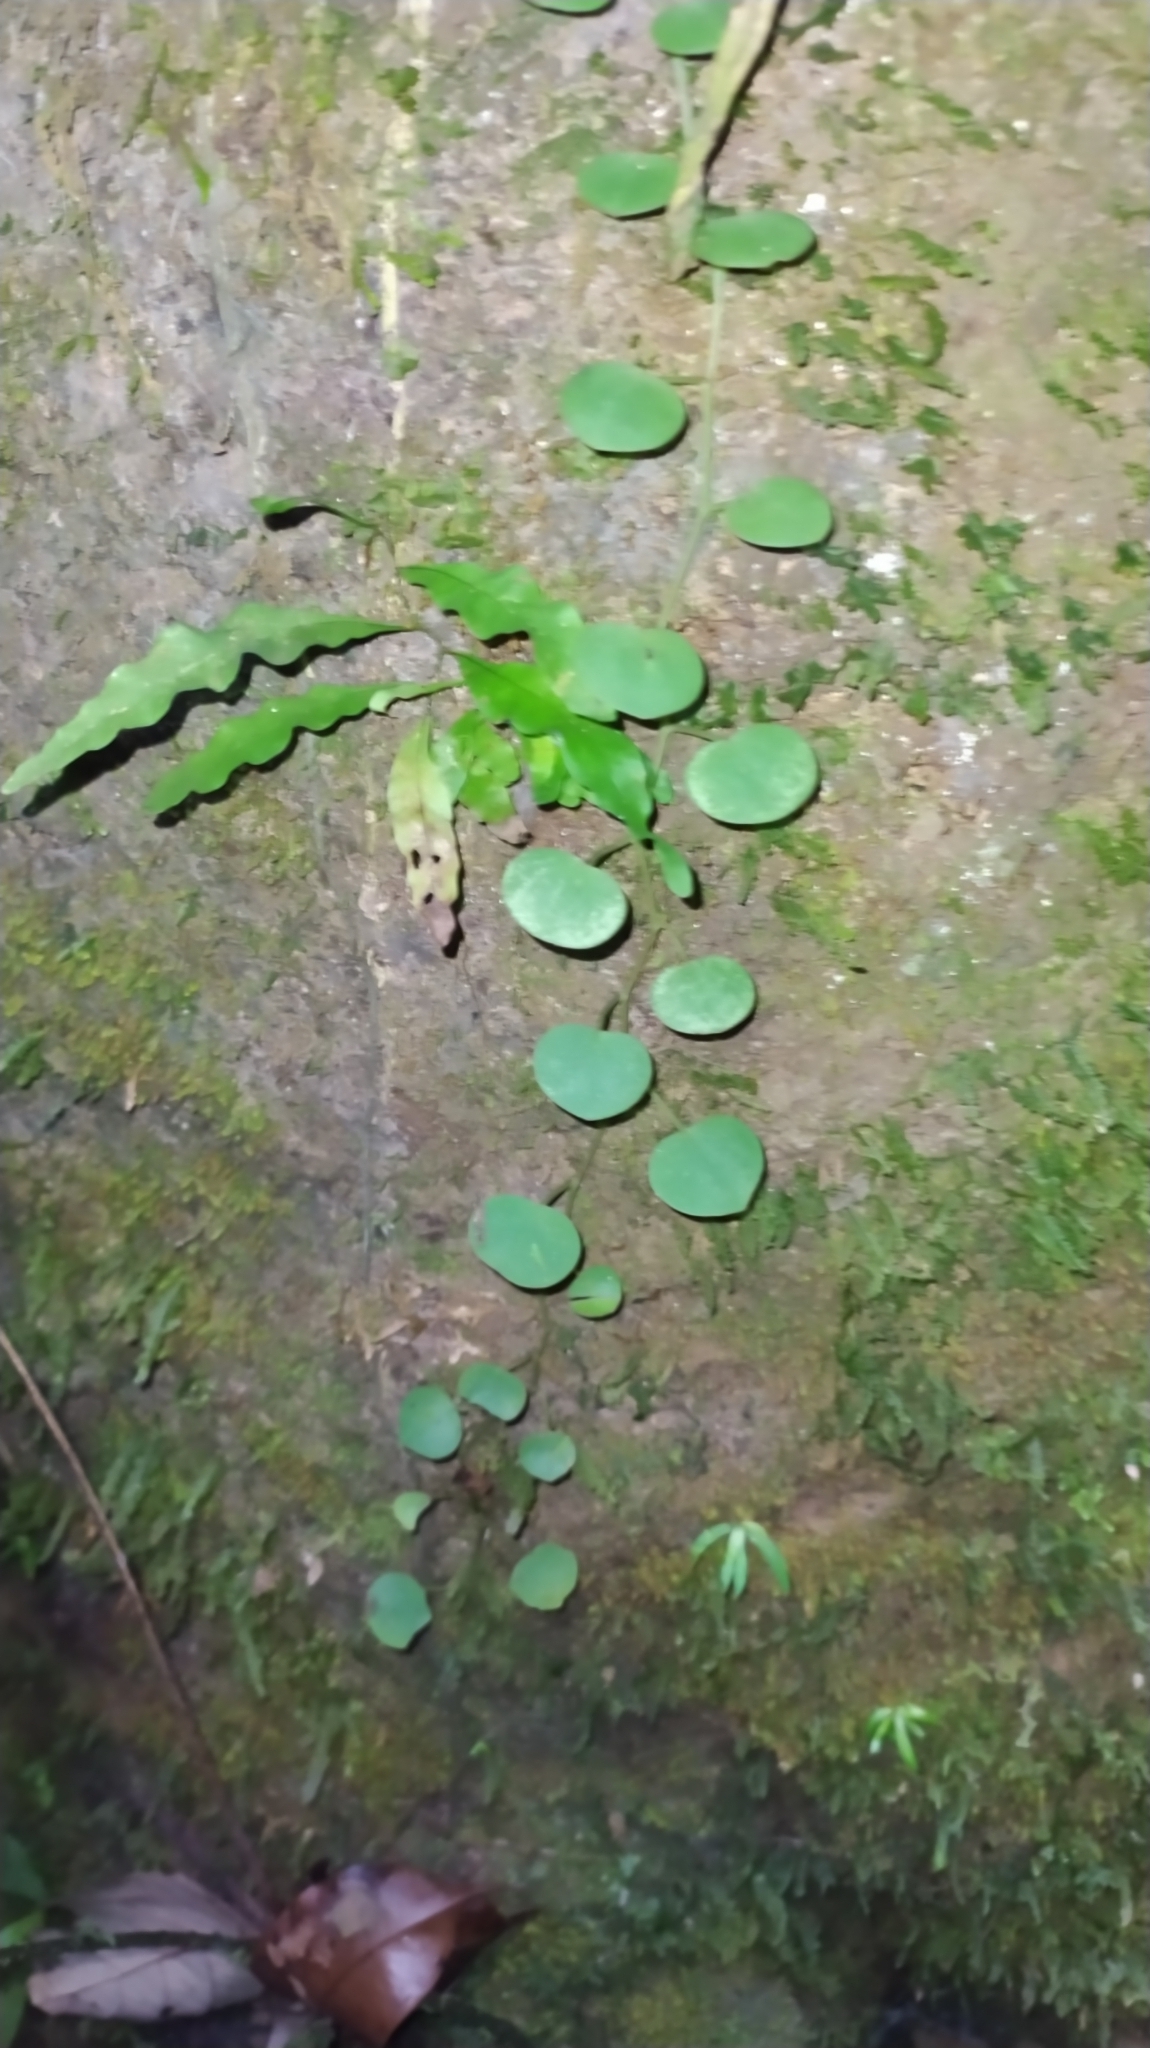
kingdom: Plantae
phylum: Tracheophyta
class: Magnoliopsida
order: Piperales
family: Piperaceae
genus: Peperomia
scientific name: Peperomia serpens
